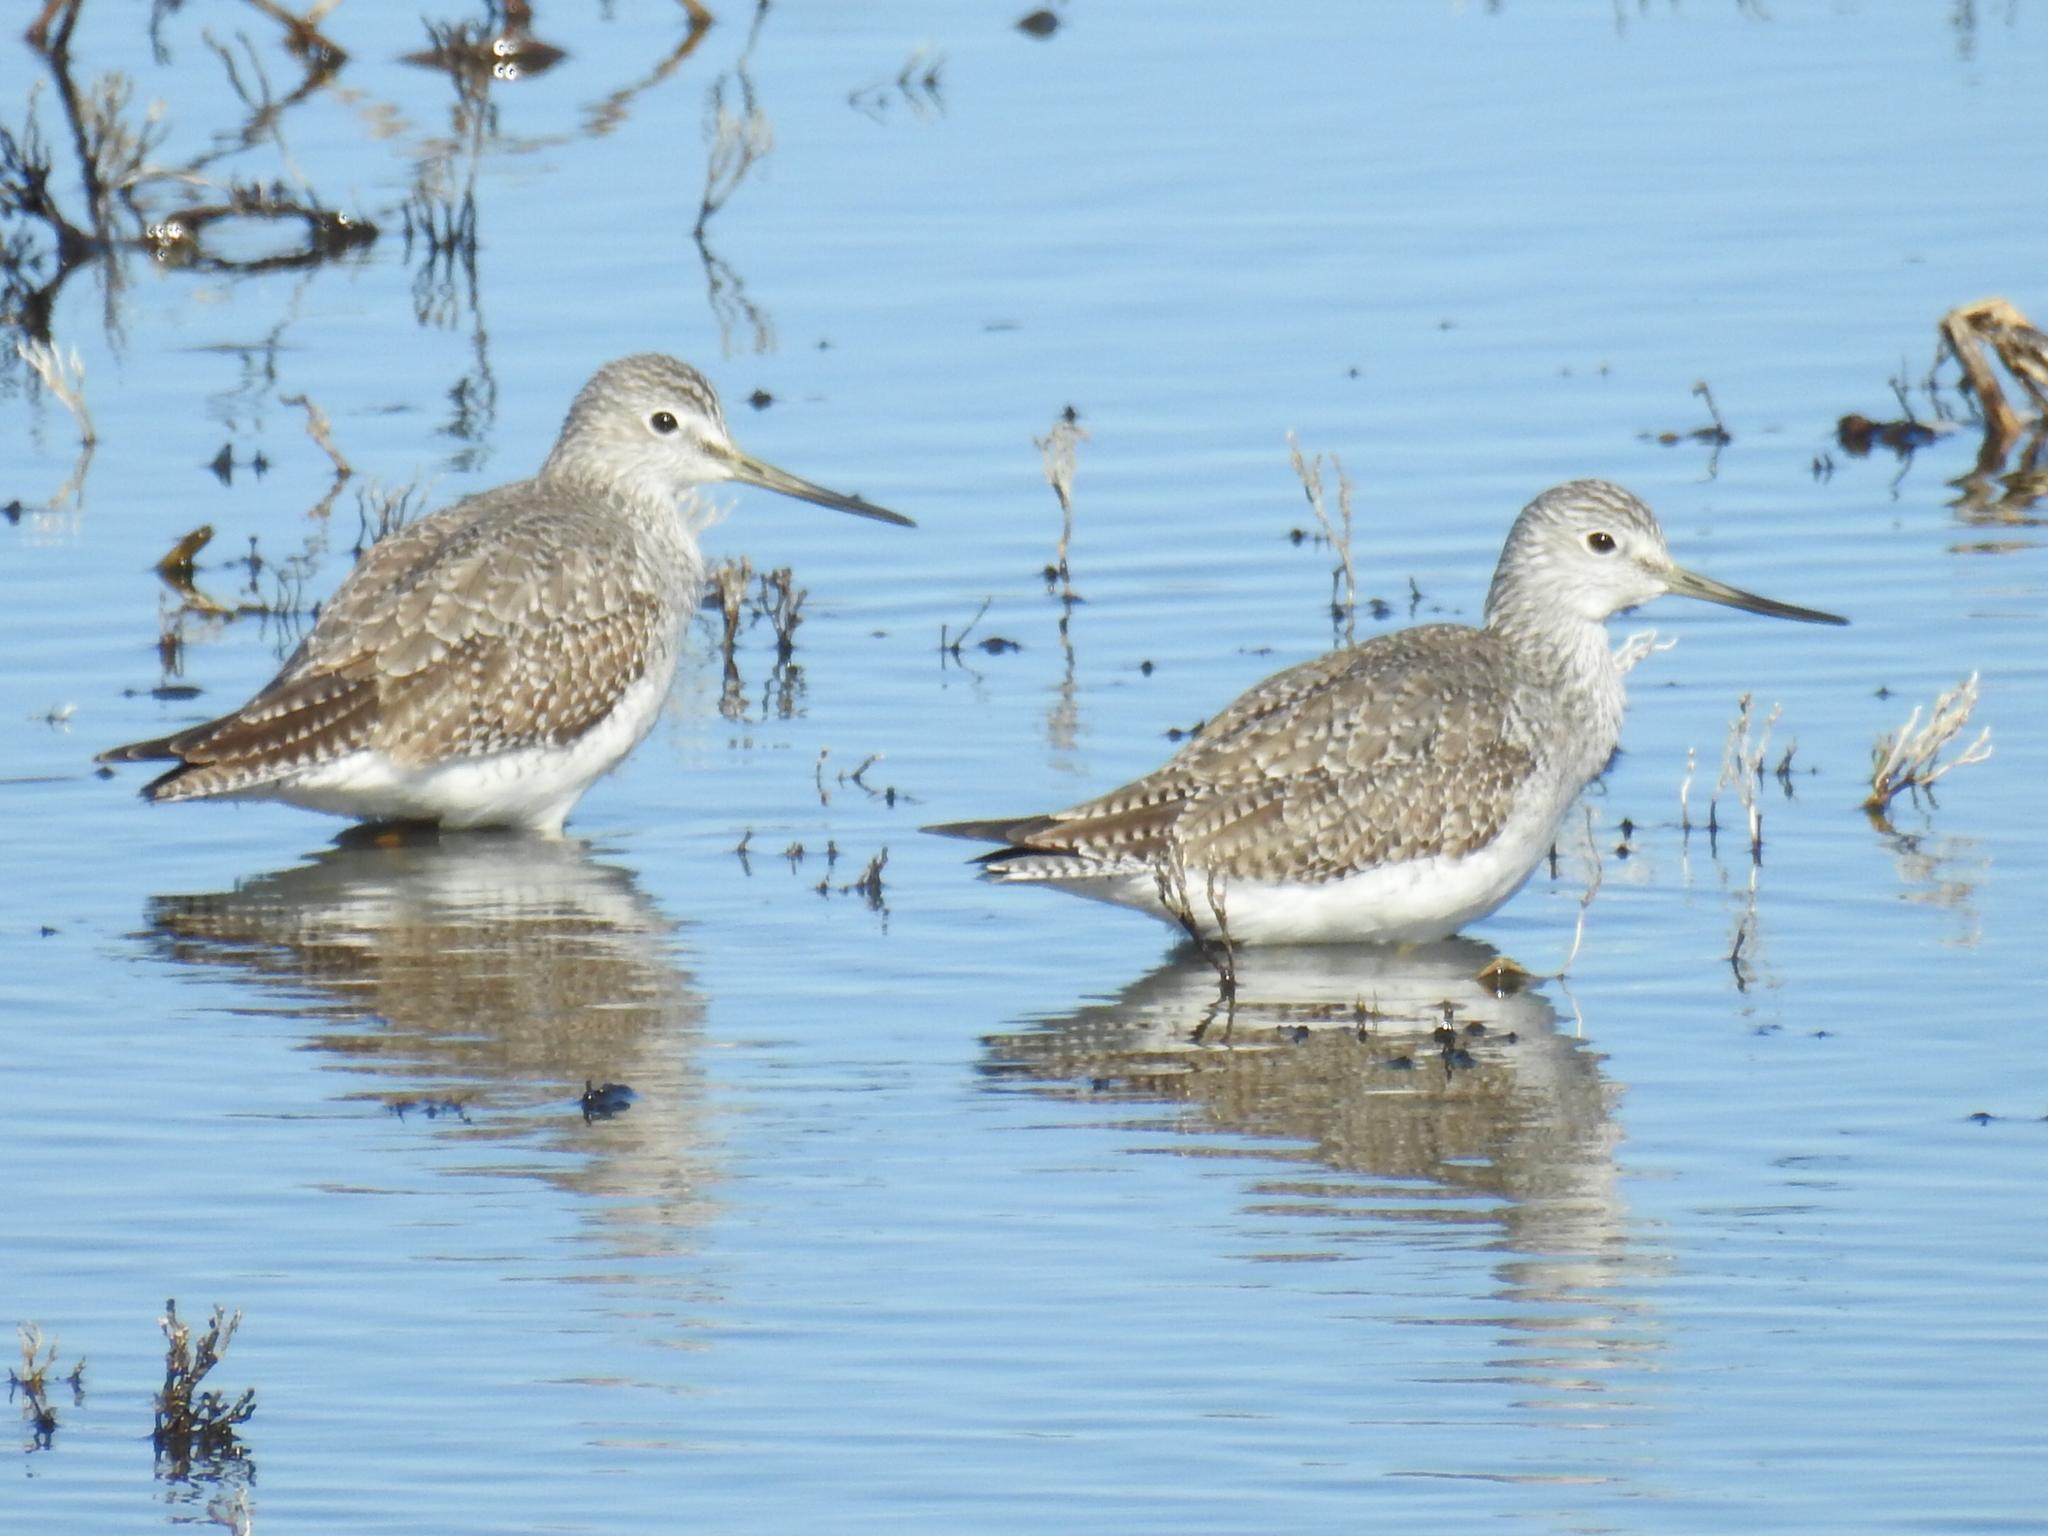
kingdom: Animalia
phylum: Chordata
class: Aves
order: Charadriiformes
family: Scolopacidae
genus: Tringa
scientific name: Tringa melanoleuca
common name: Greater yellowlegs
